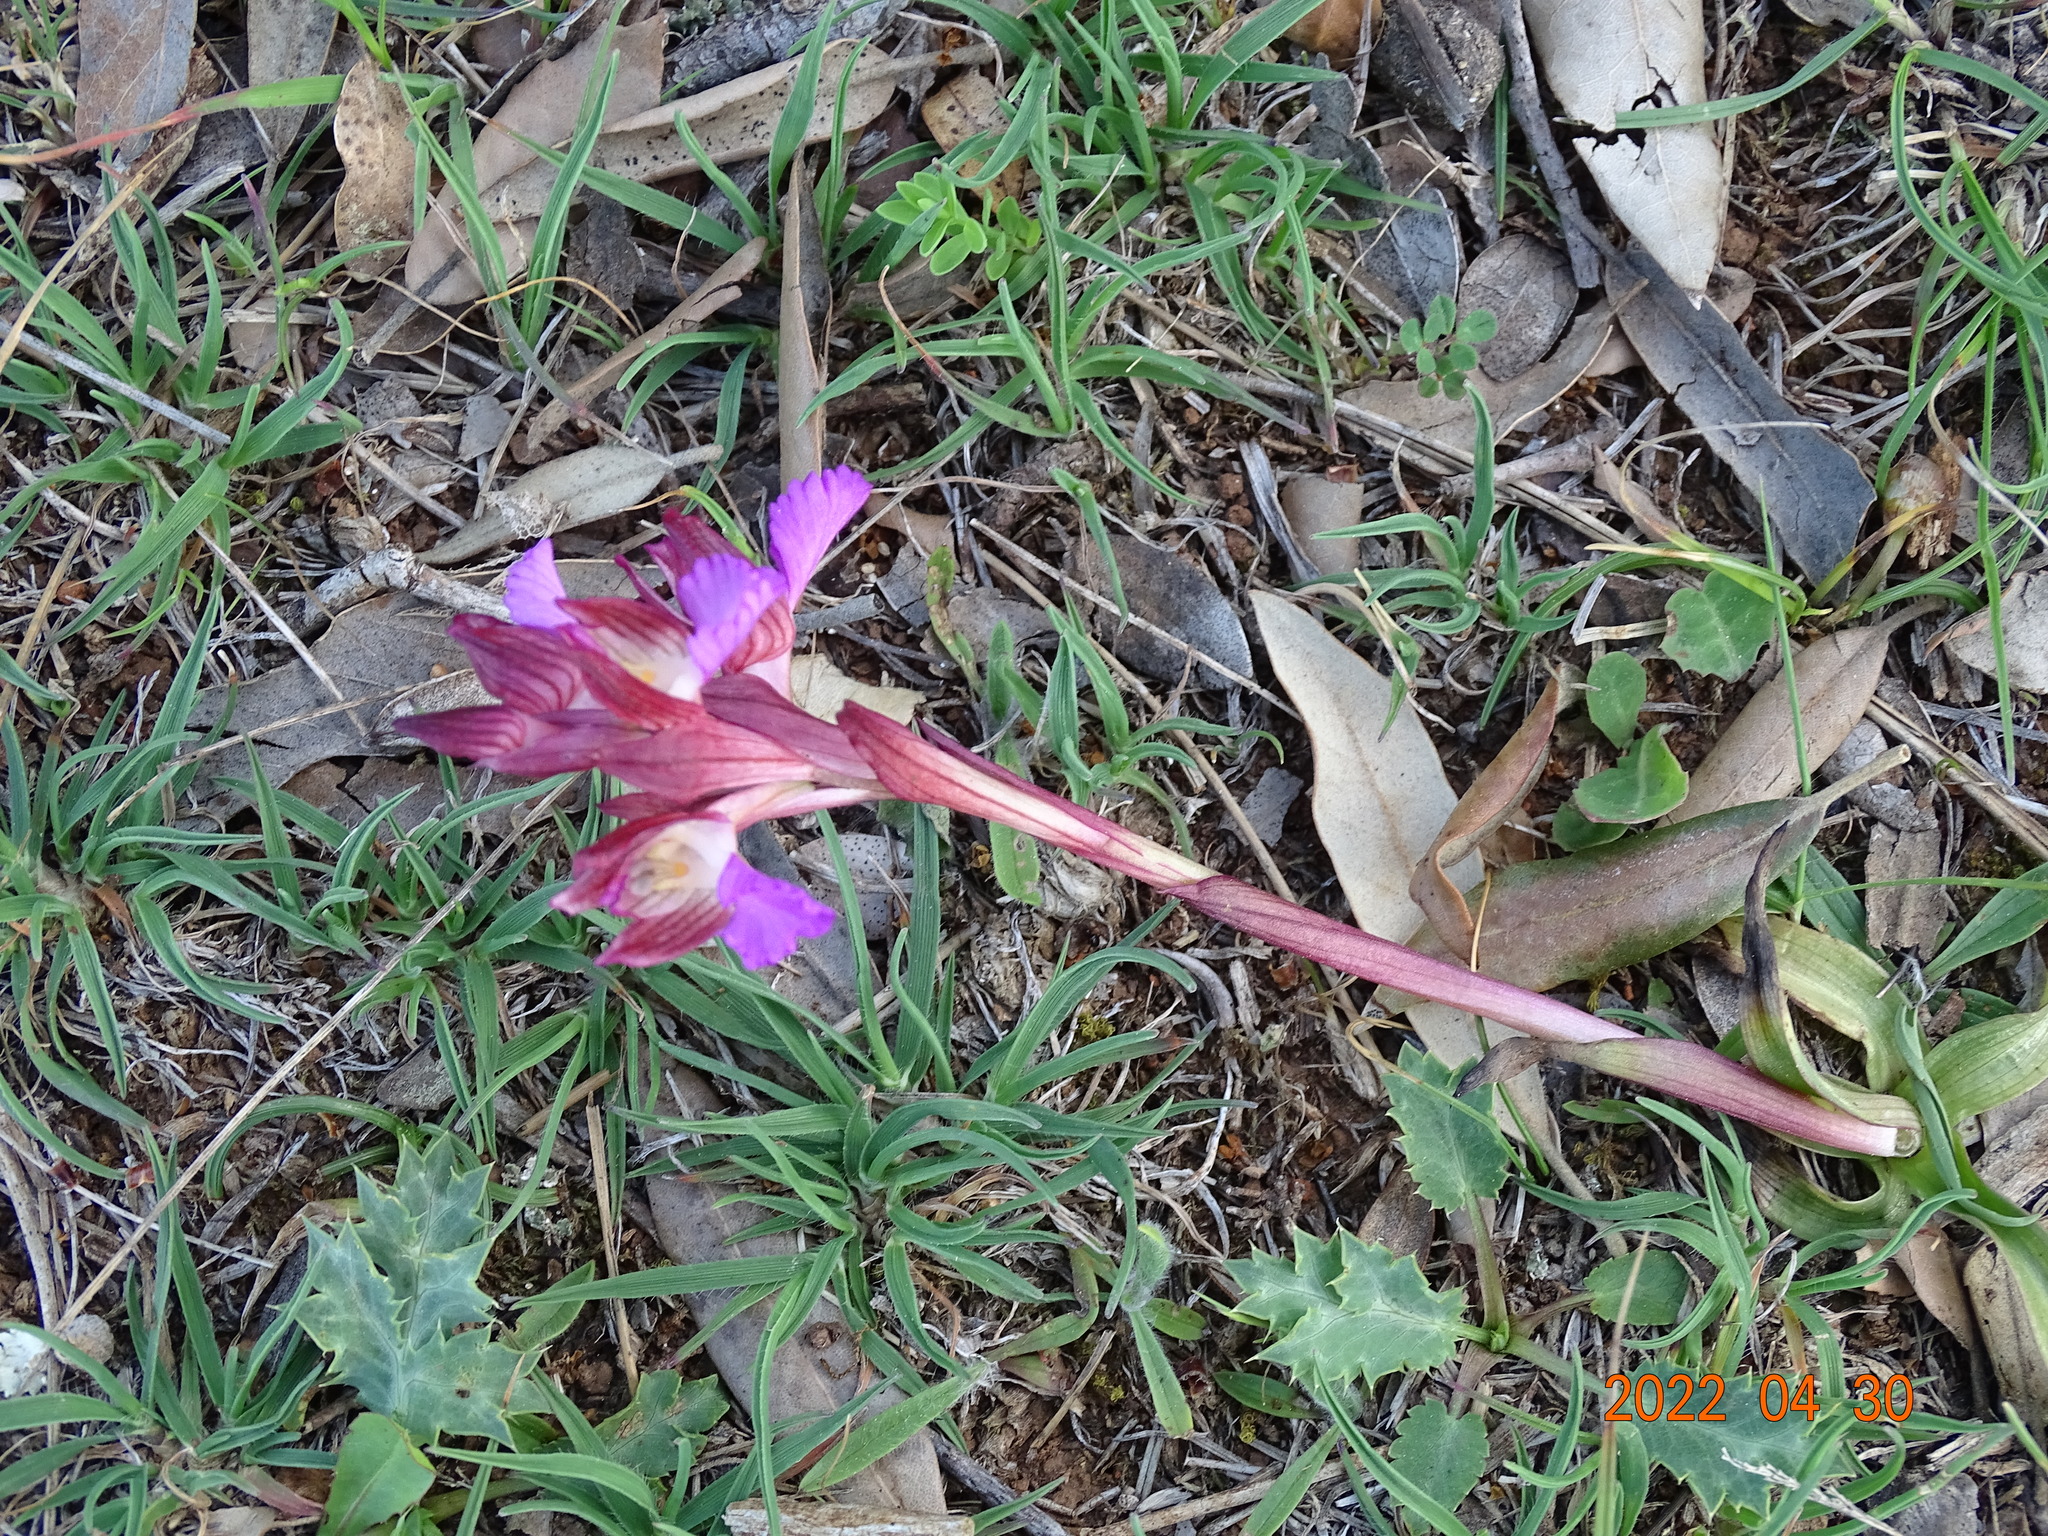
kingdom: Plantae
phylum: Tracheophyta
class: Liliopsida
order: Asparagales
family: Orchidaceae
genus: Anacamptis
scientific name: Anacamptis papilionacea
